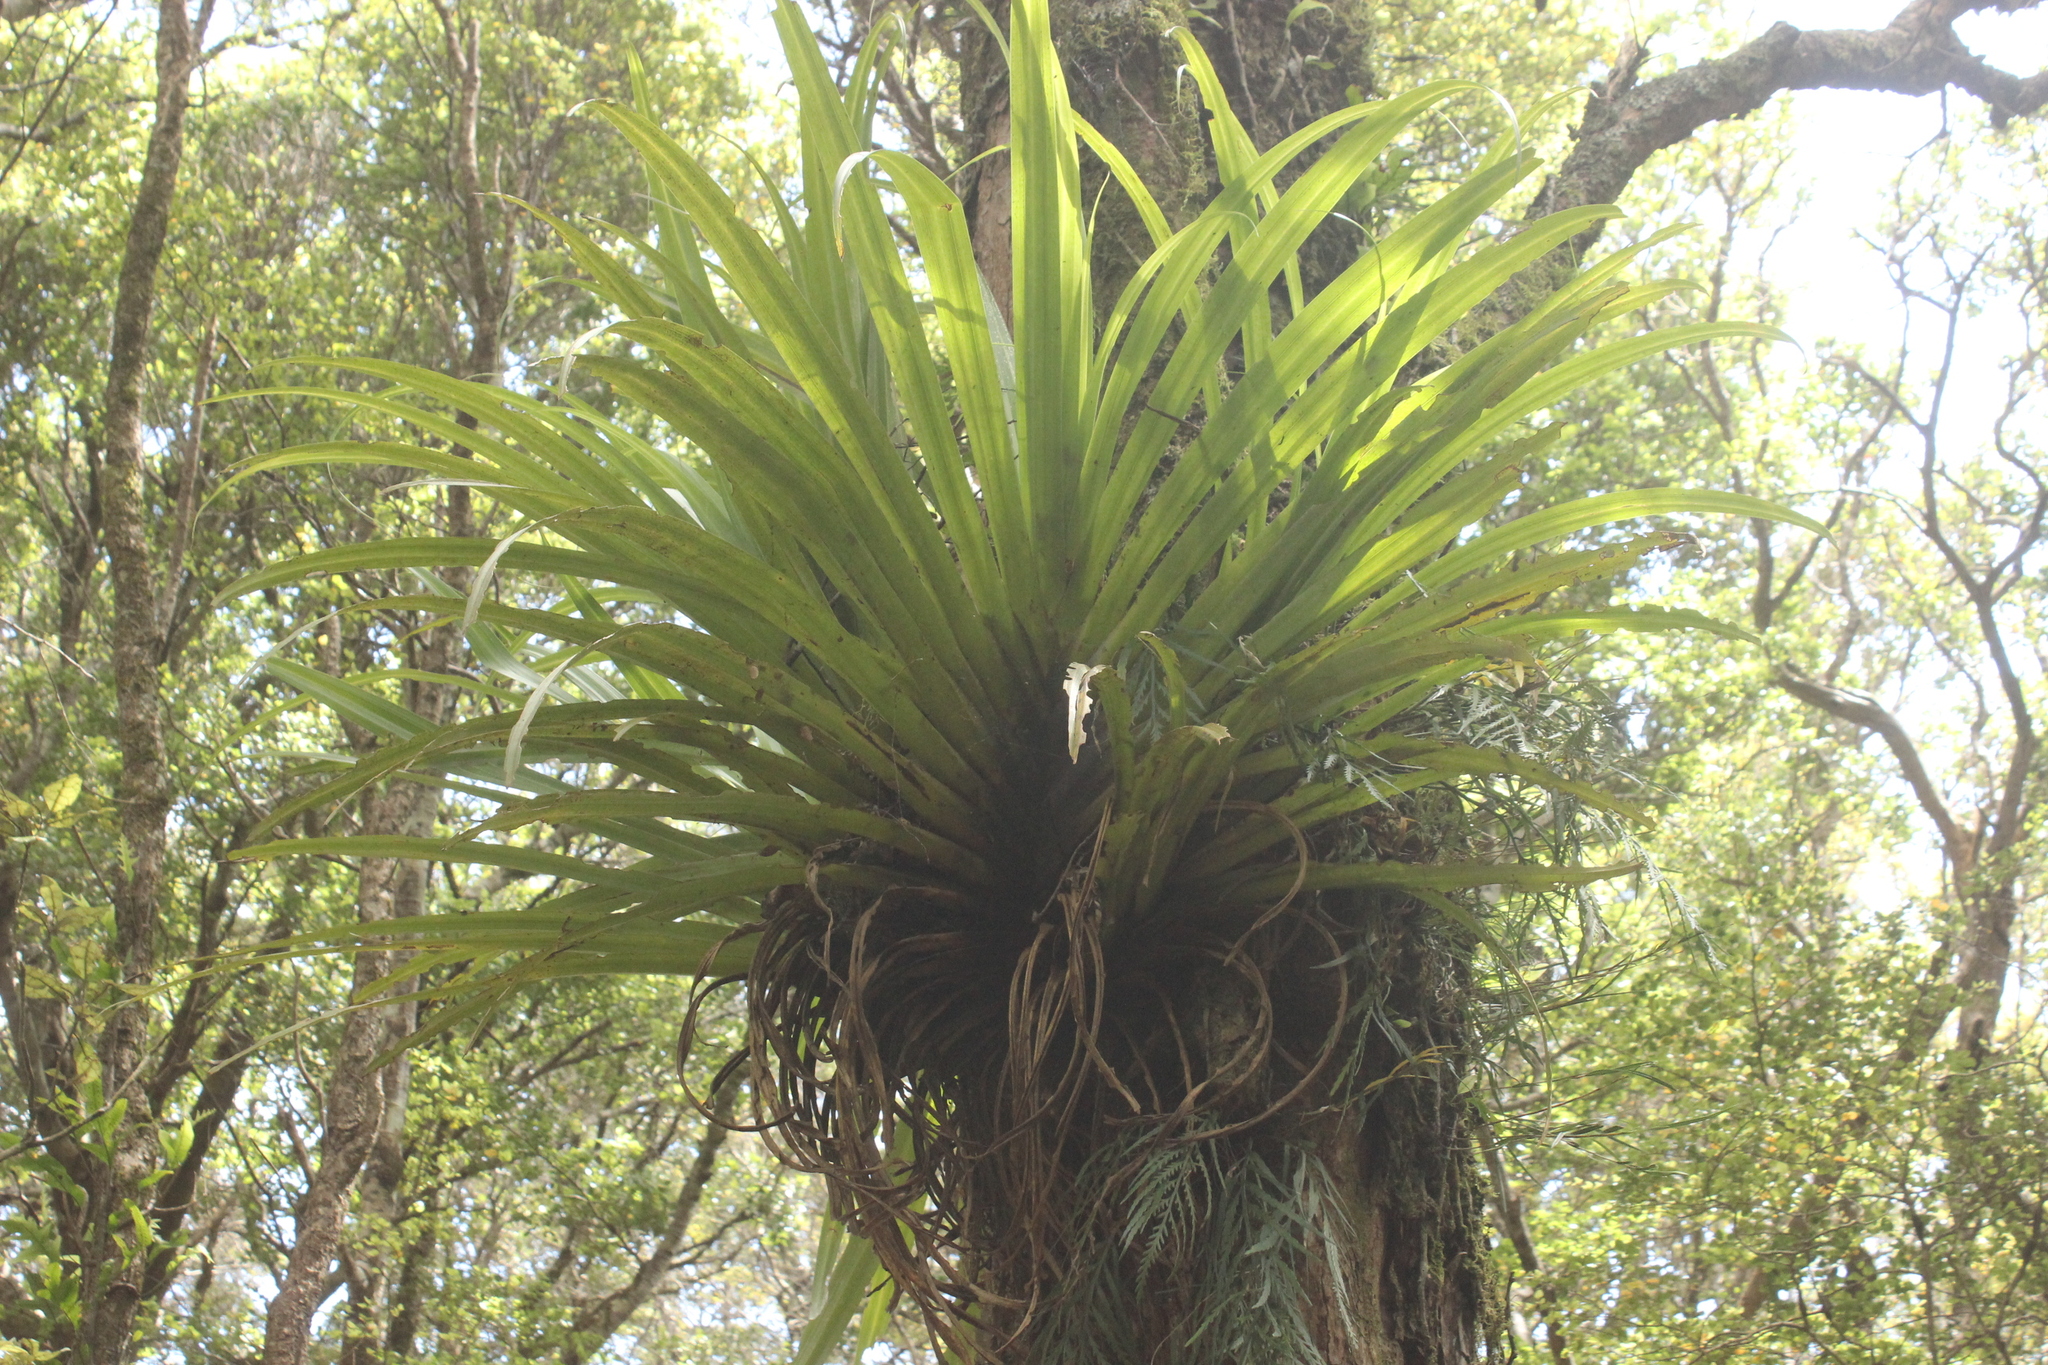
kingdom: Plantae
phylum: Tracheophyta
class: Liliopsida
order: Asparagales
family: Asteliaceae
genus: Astelia
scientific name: Astelia hastata
